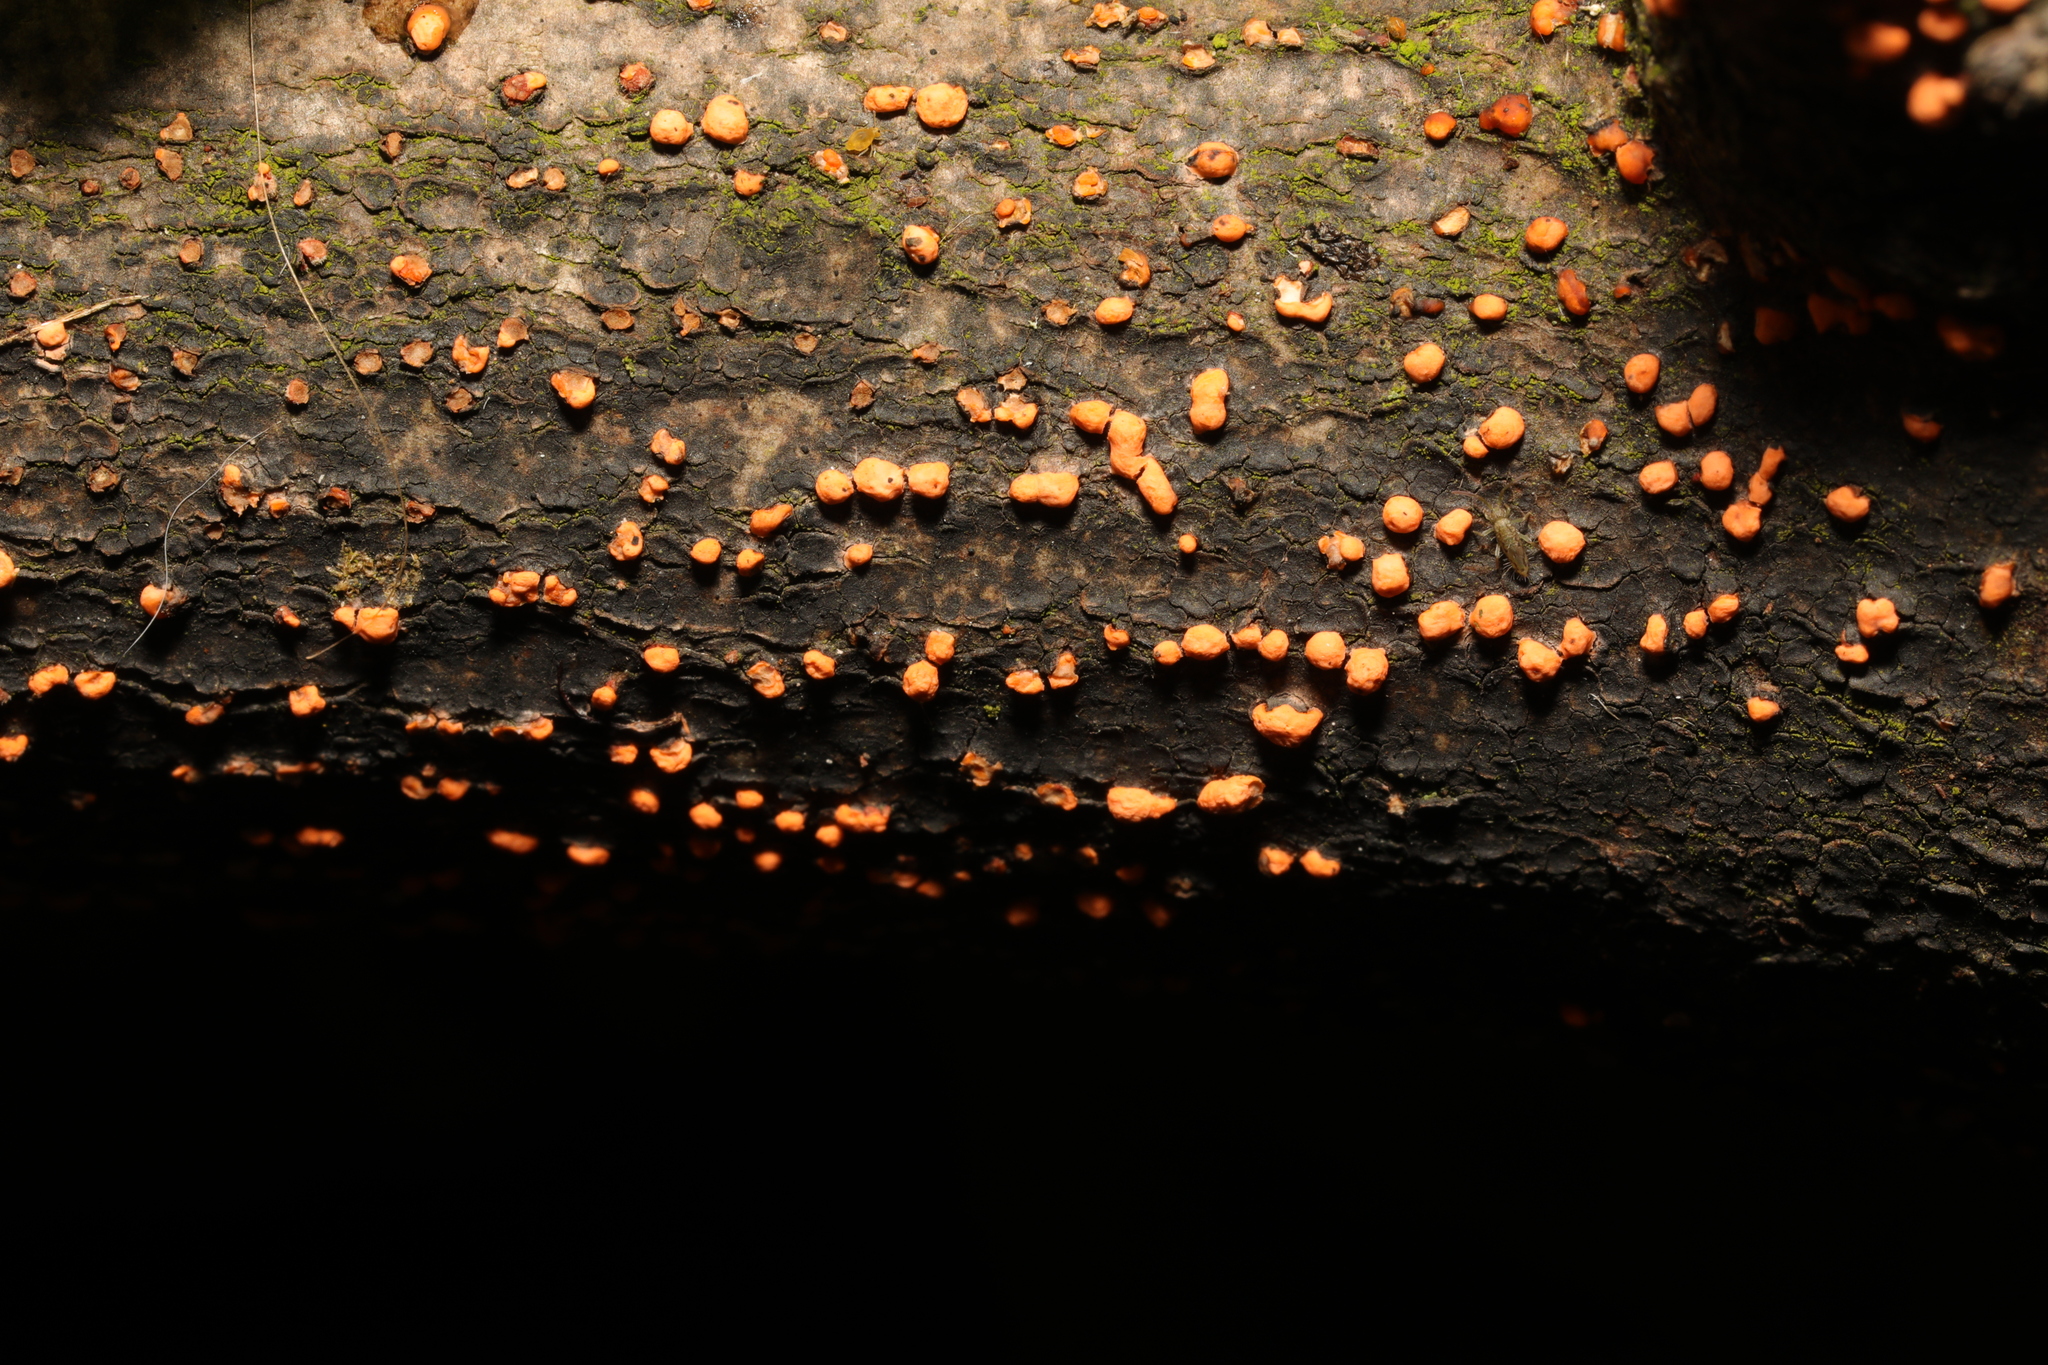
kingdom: Fungi
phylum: Ascomycota
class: Sordariomycetes
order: Hypocreales
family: Nectriaceae
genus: Nectria
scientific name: Nectria cinnabarina
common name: Coral spot
